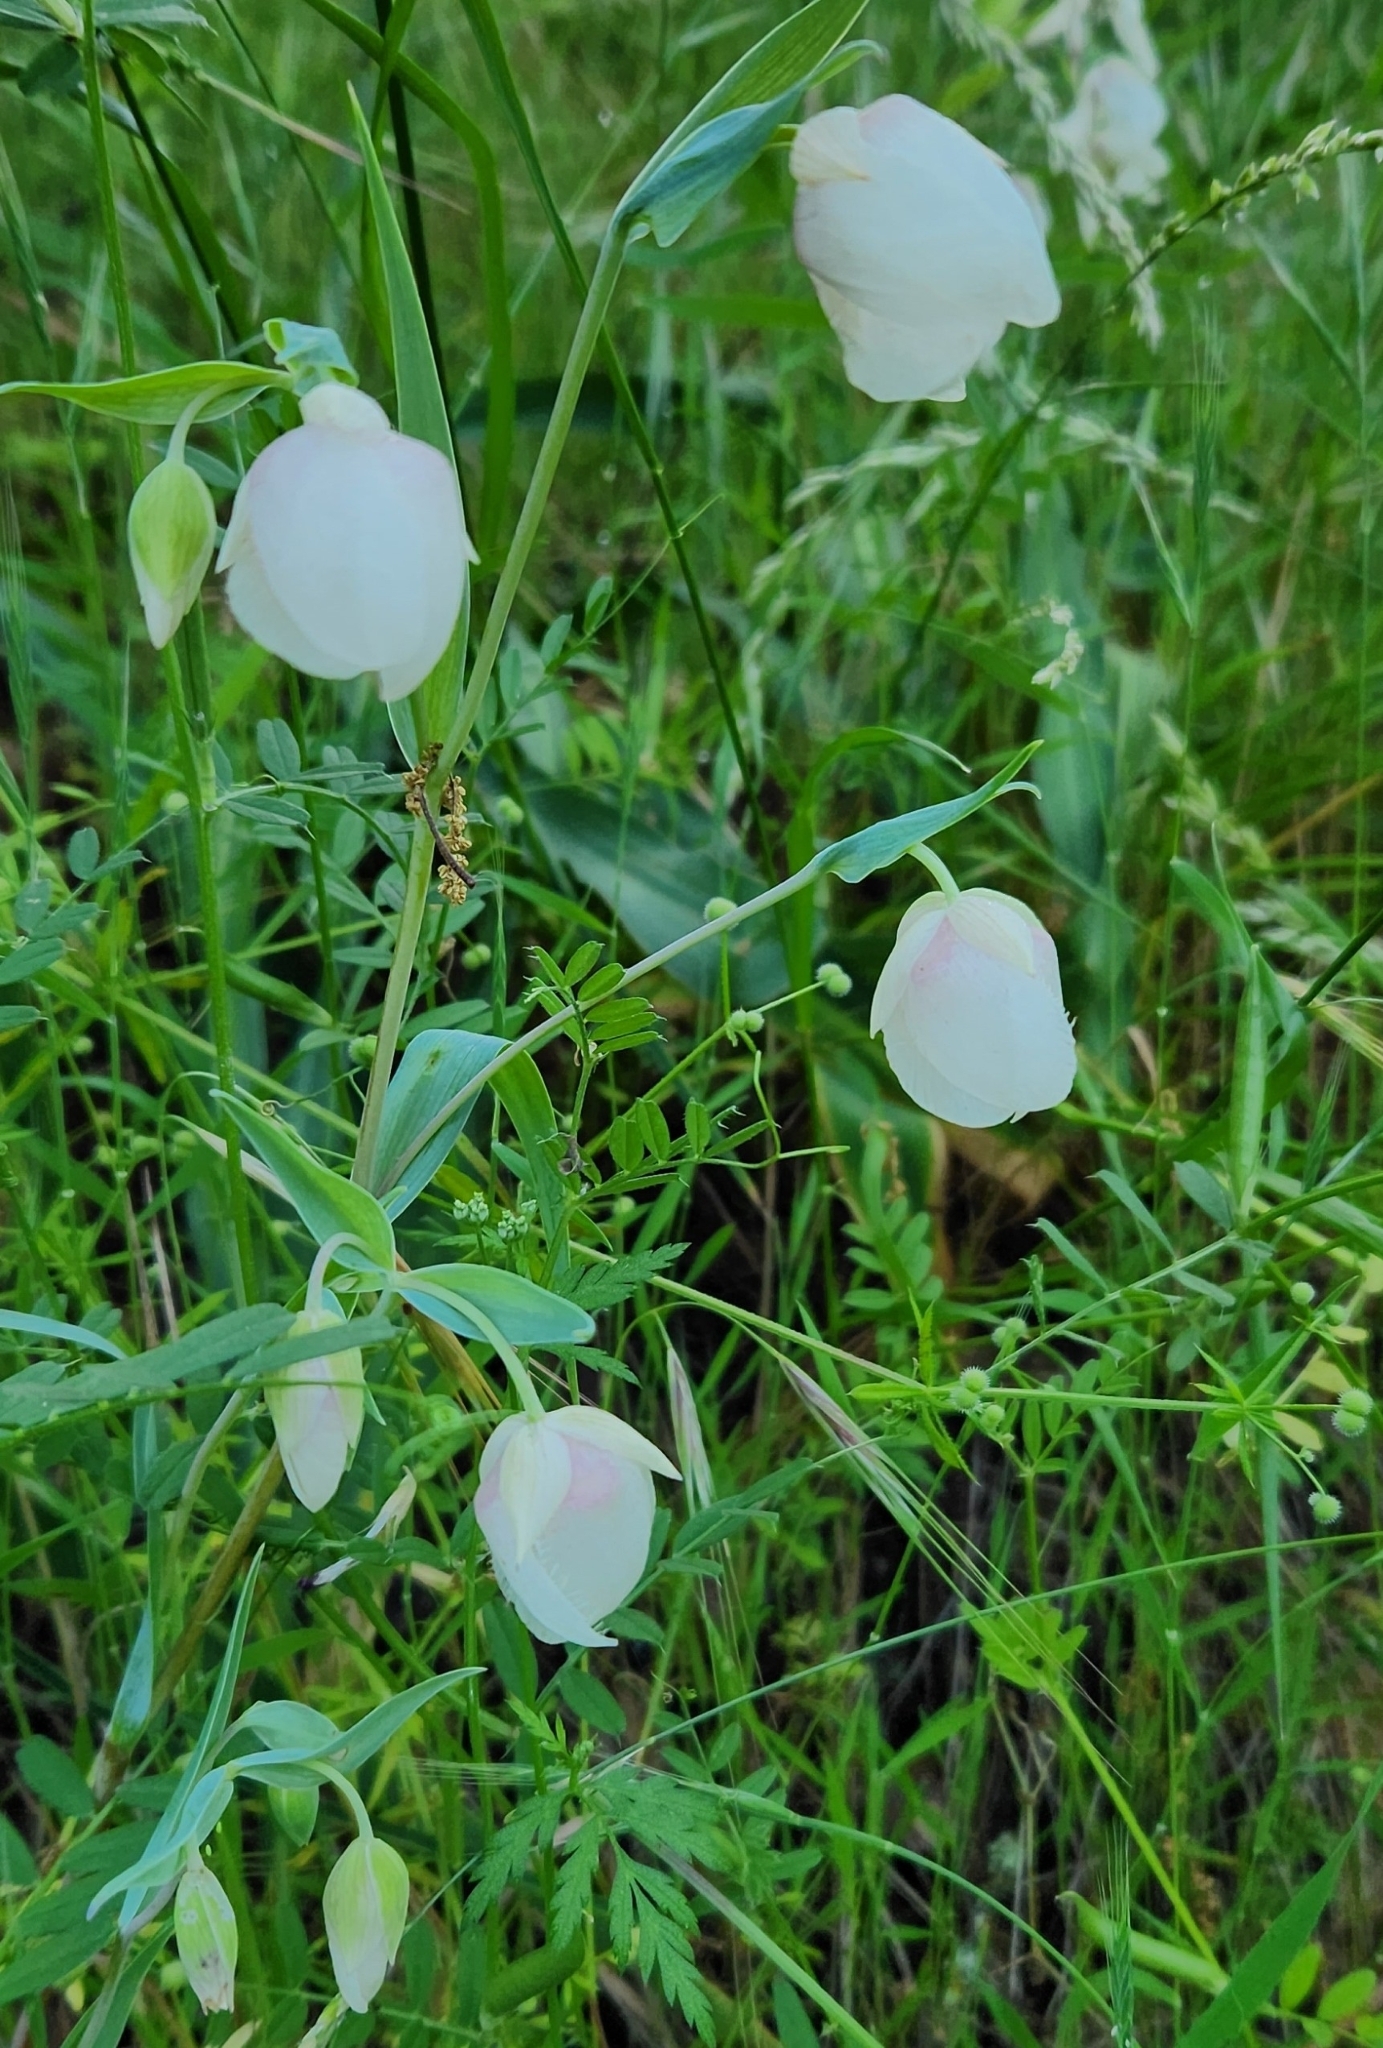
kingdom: Plantae
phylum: Tracheophyta
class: Liliopsida
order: Liliales
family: Liliaceae
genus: Calochortus
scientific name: Calochortus albus
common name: Fairy-lantern
